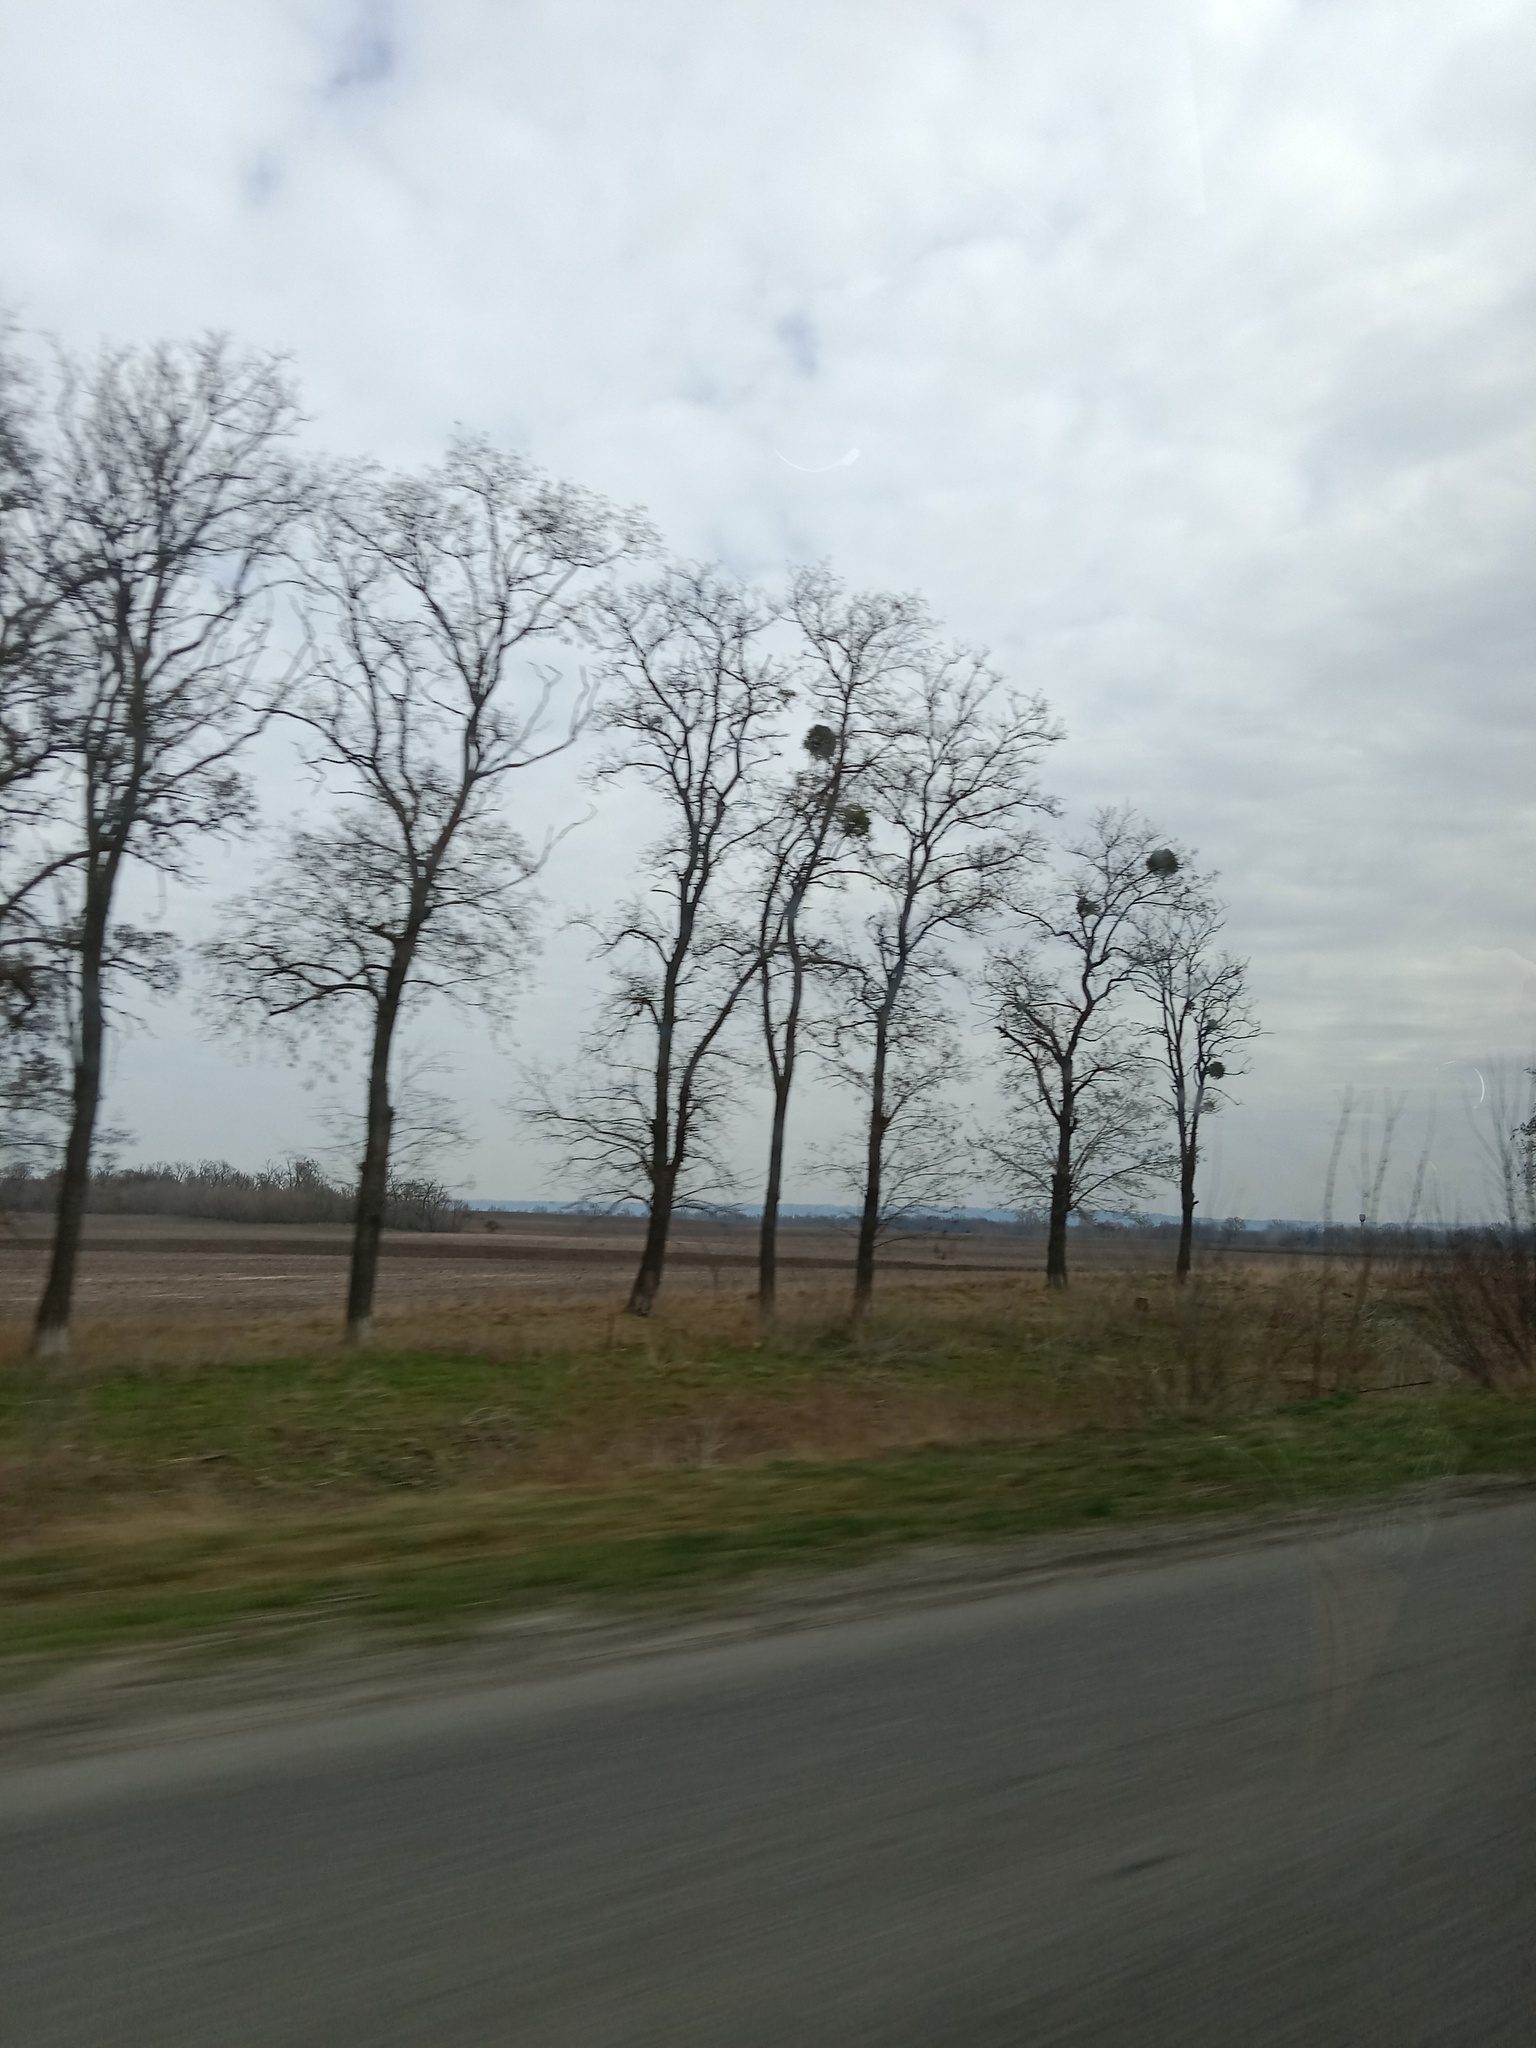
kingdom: Plantae
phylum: Tracheophyta
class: Magnoliopsida
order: Santalales
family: Viscaceae
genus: Viscum
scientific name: Viscum album
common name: Mistletoe
